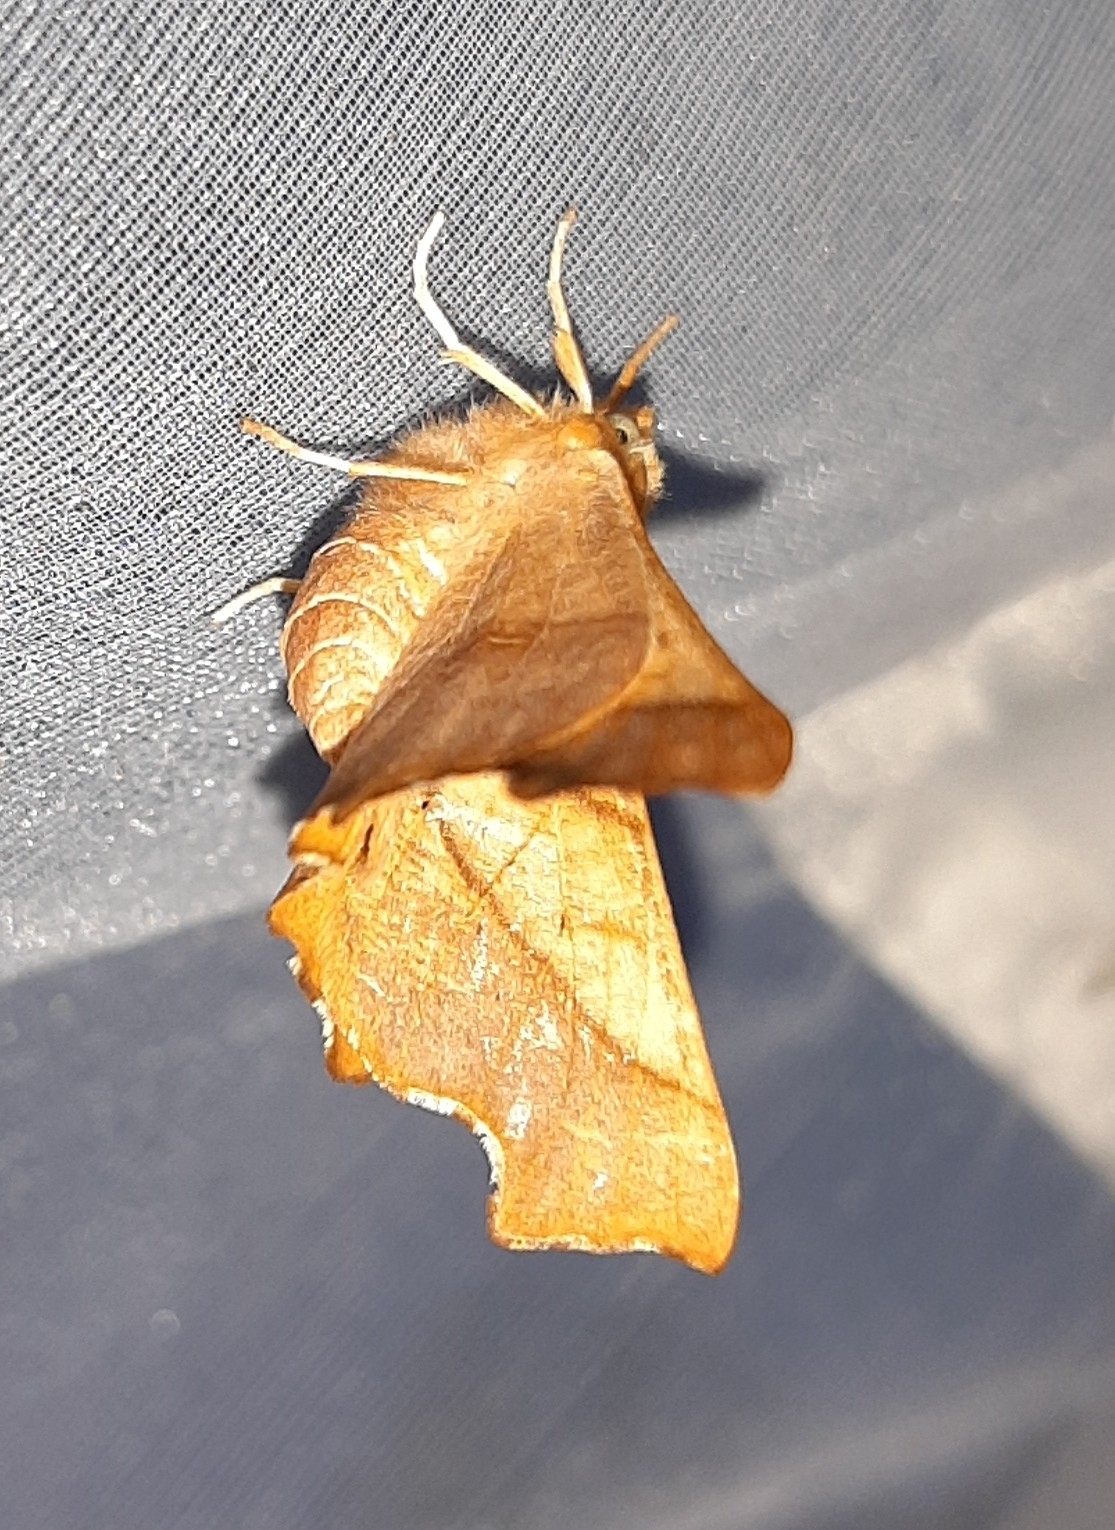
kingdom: Animalia
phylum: Arthropoda
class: Insecta
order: Lepidoptera
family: Geometridae
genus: Ennomos
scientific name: Ennomos fuscantaria
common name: Dusky thorn
